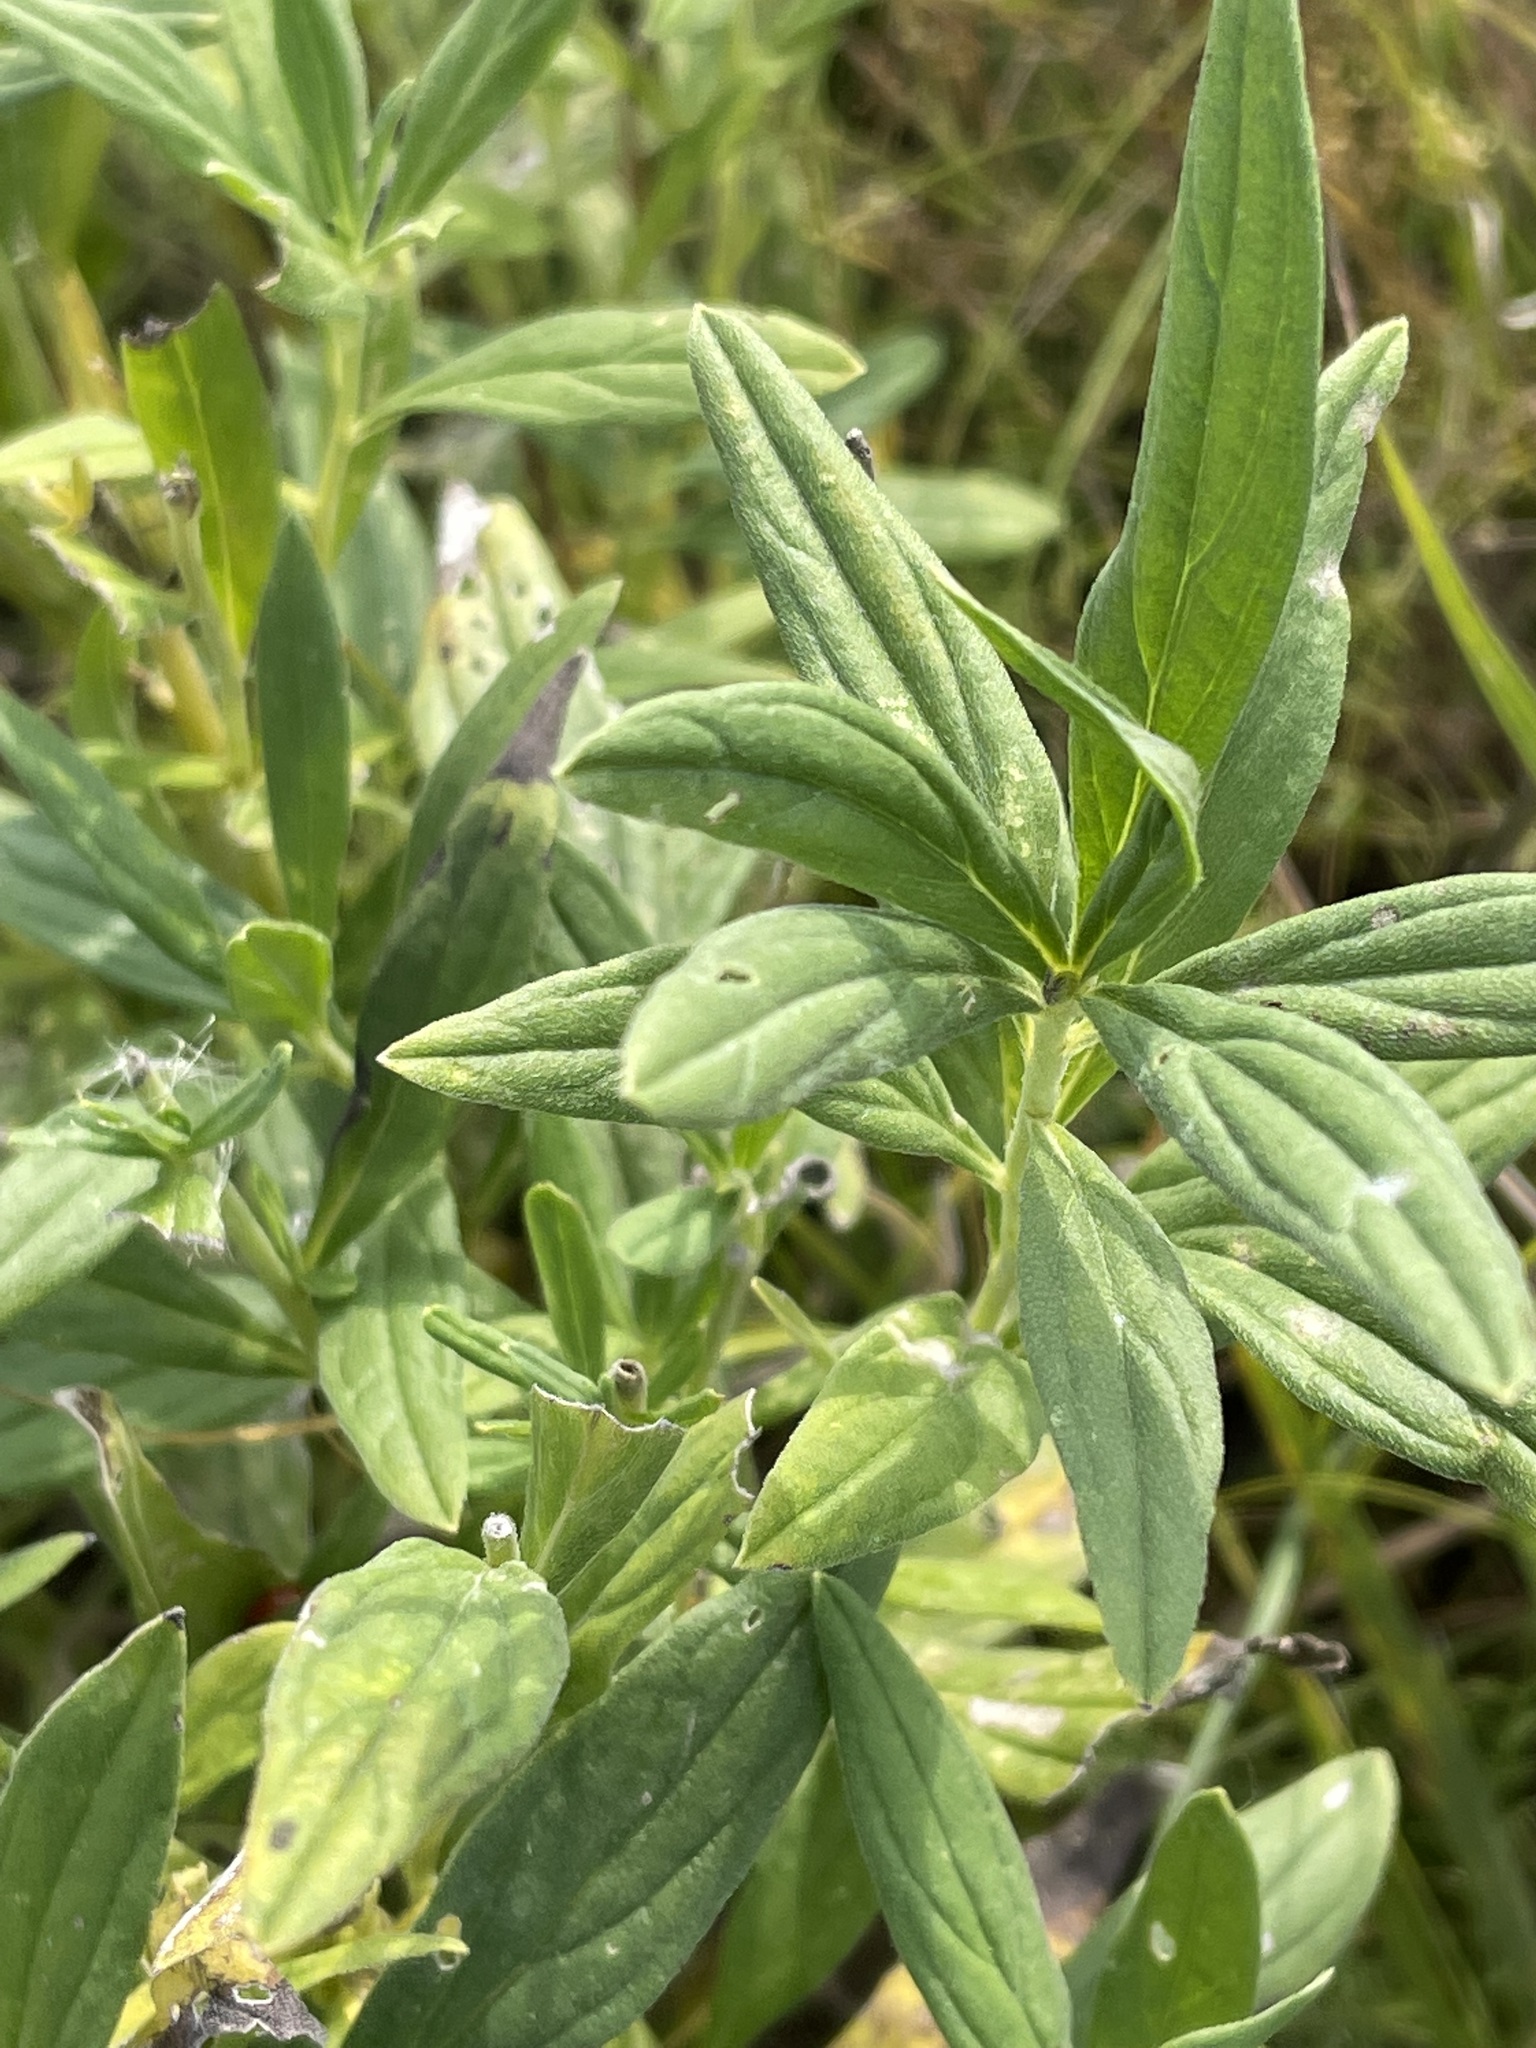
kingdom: Plantae
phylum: Tracheophyta
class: Magnoliopsida
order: Boraginales
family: Boraginaceae
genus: Lithospermum
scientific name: Lithospermum officinale
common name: Common gromwell
